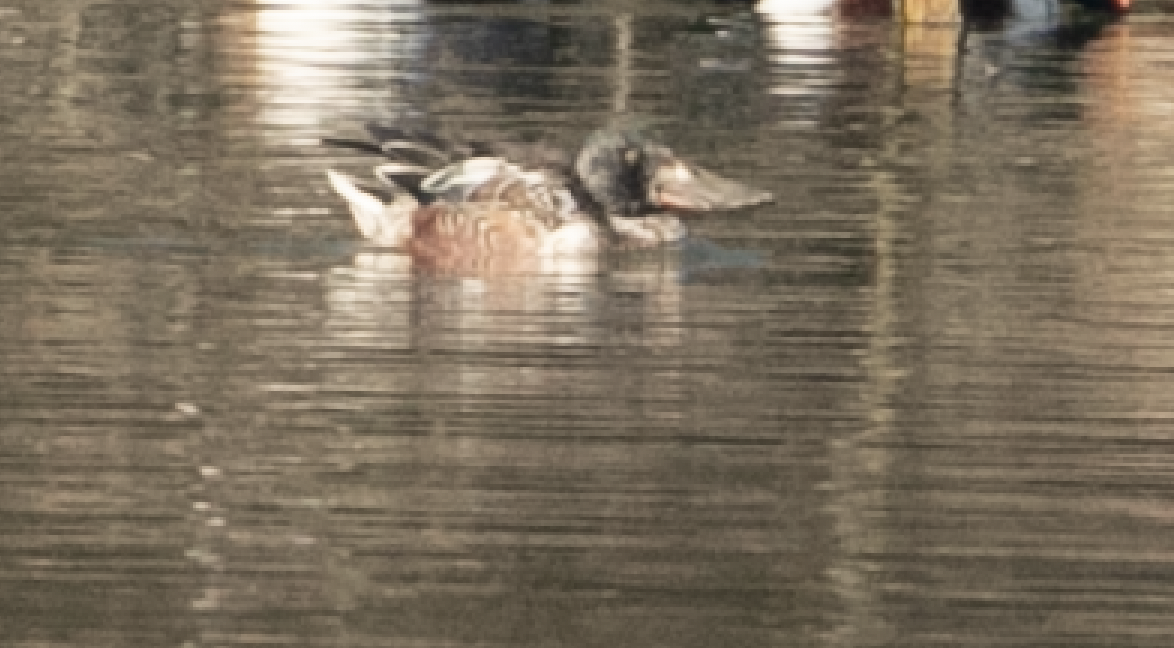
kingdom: Animalia
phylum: Chordata
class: Aves
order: Anseriformes
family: Anatidae
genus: Spatula
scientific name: Spatula clypeata
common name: Northern shoveler
